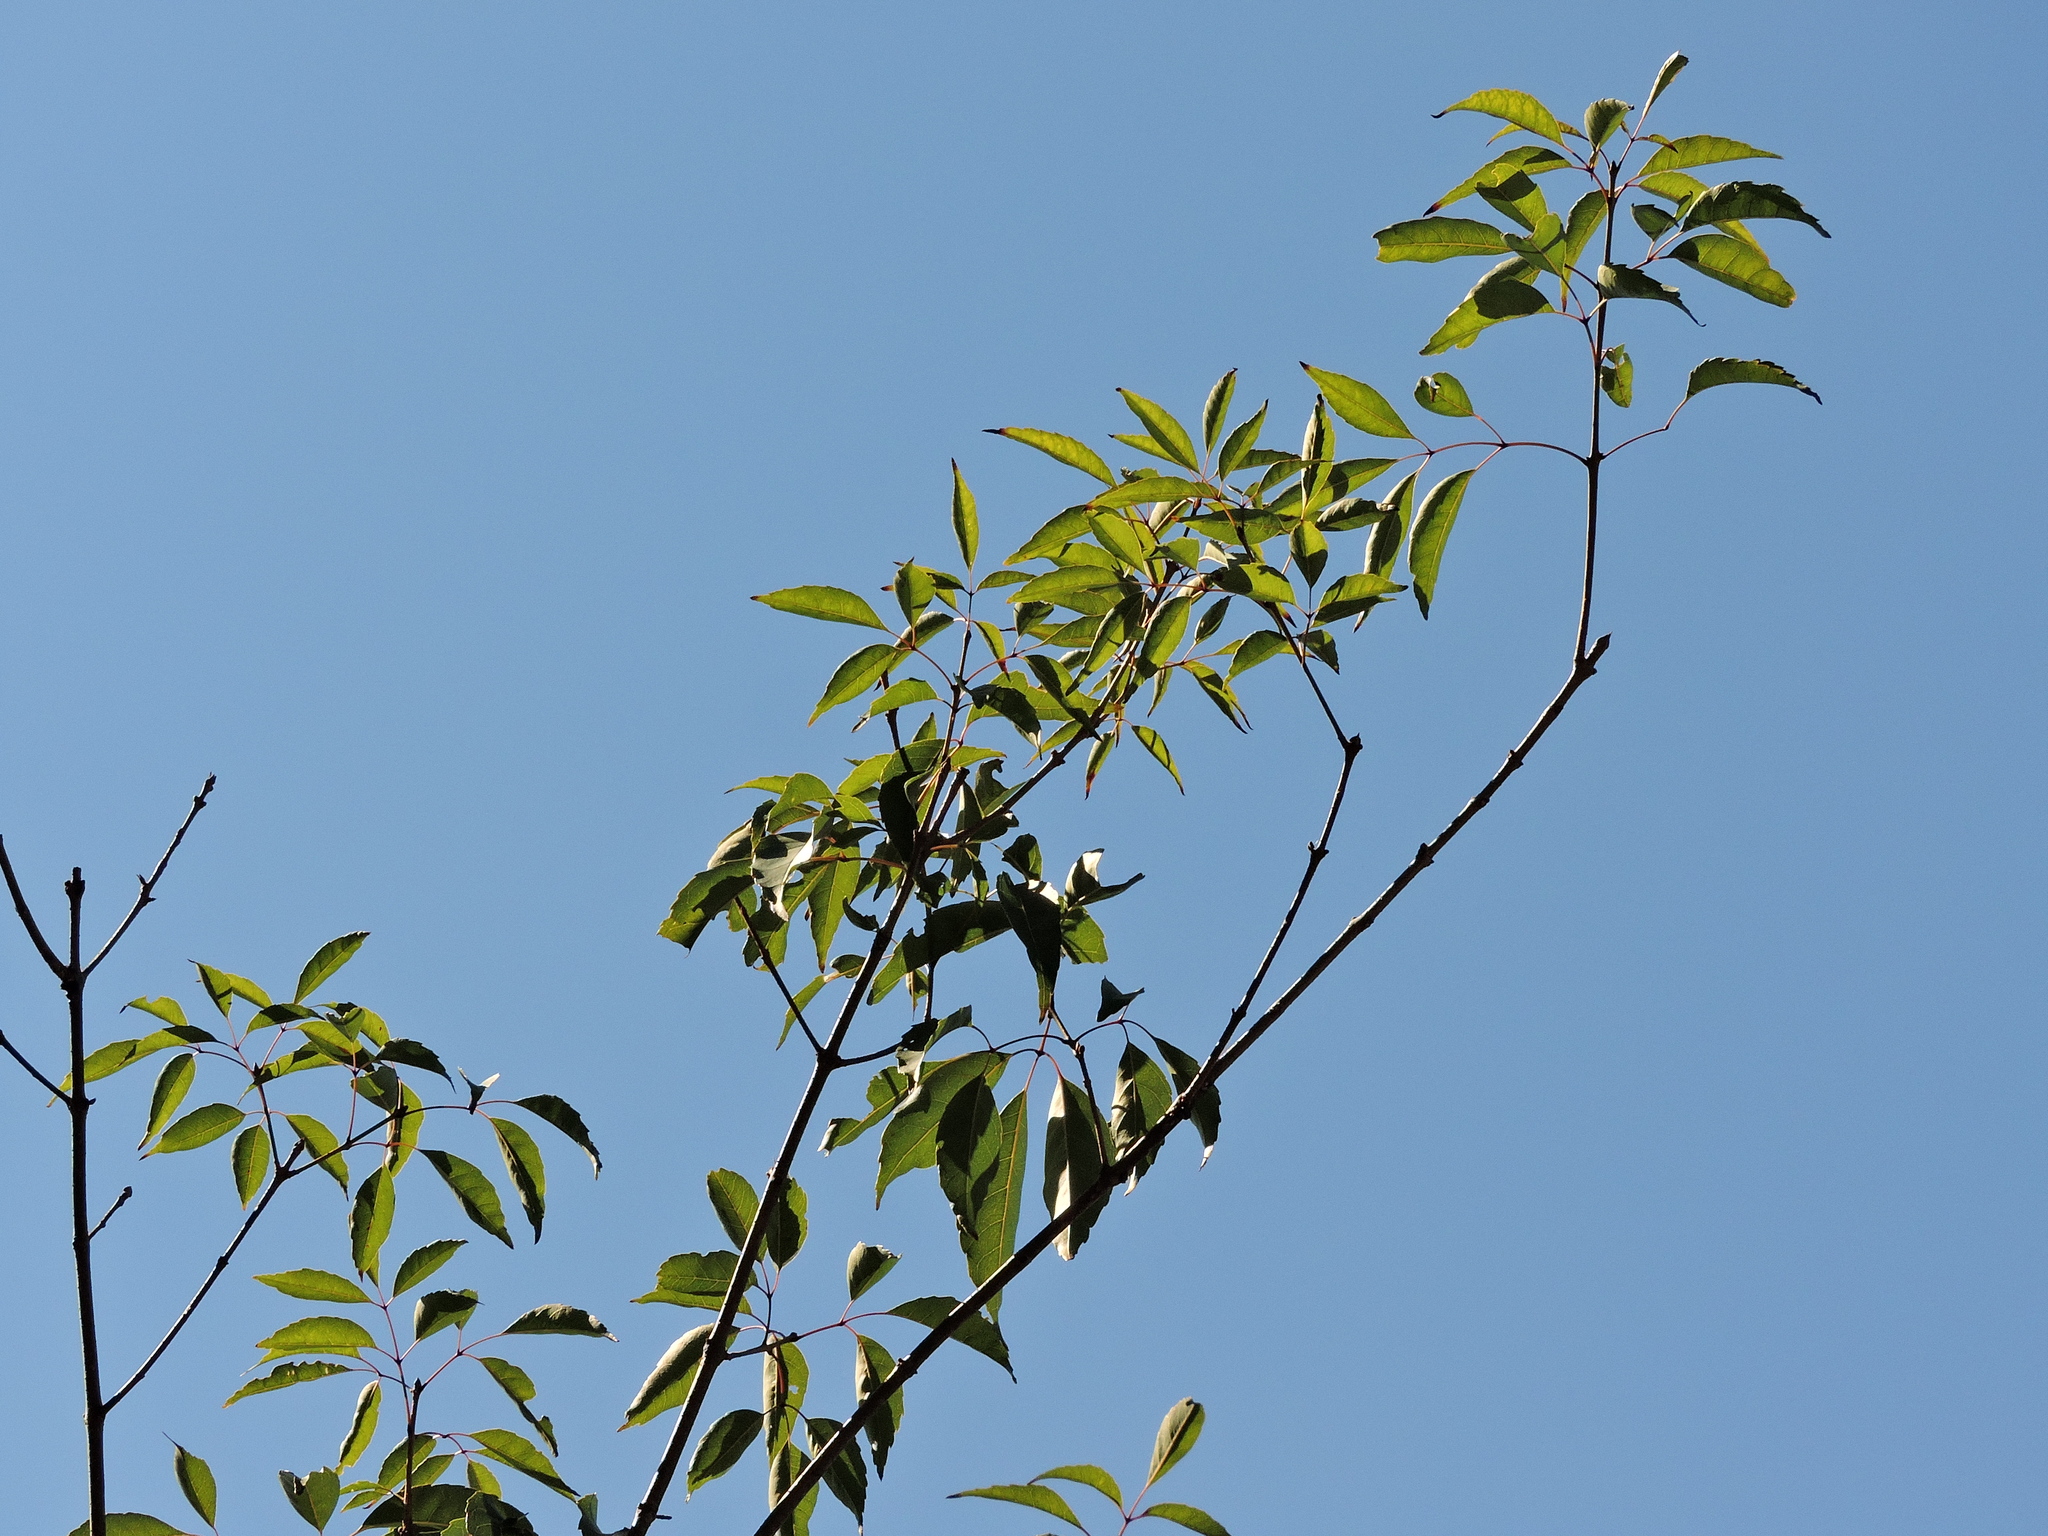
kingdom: Plantae
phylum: Tracheophyta
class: Magnoliopsida
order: Lamiales
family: Oleaceae
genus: Fraxinus
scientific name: Fraxinus insularis
